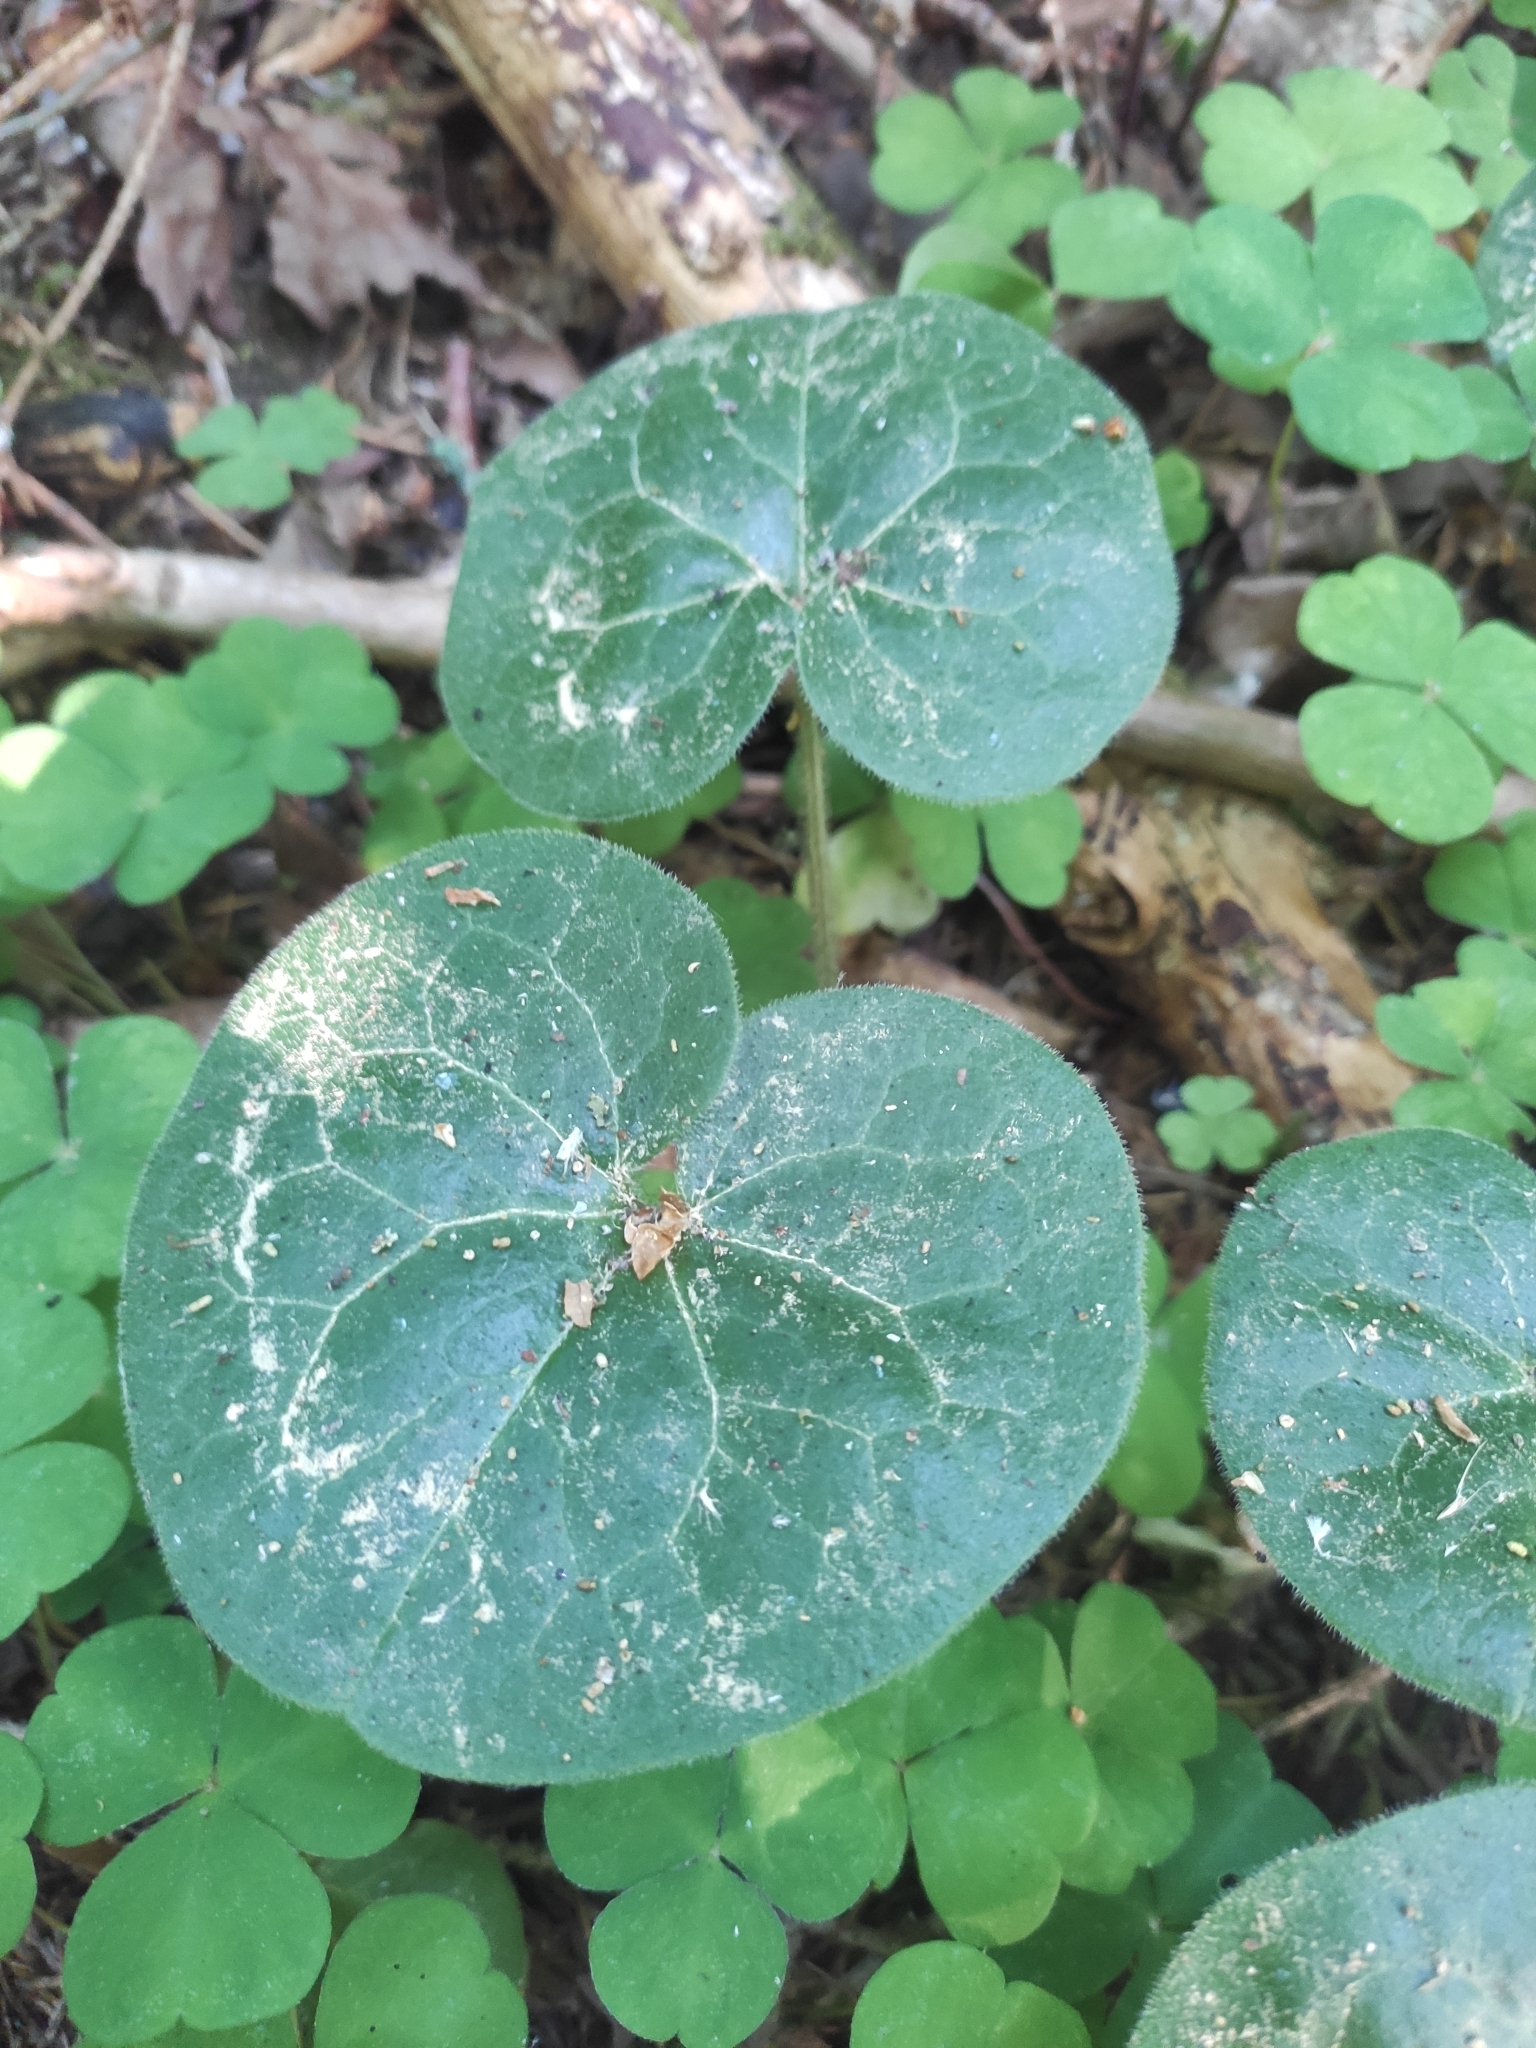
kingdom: Plantae
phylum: Tracheophyta
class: Magnoliopsida
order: Piperales
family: Aristolochiaceae
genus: Asarum
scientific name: Asarum europaeum
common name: Asarabacca
